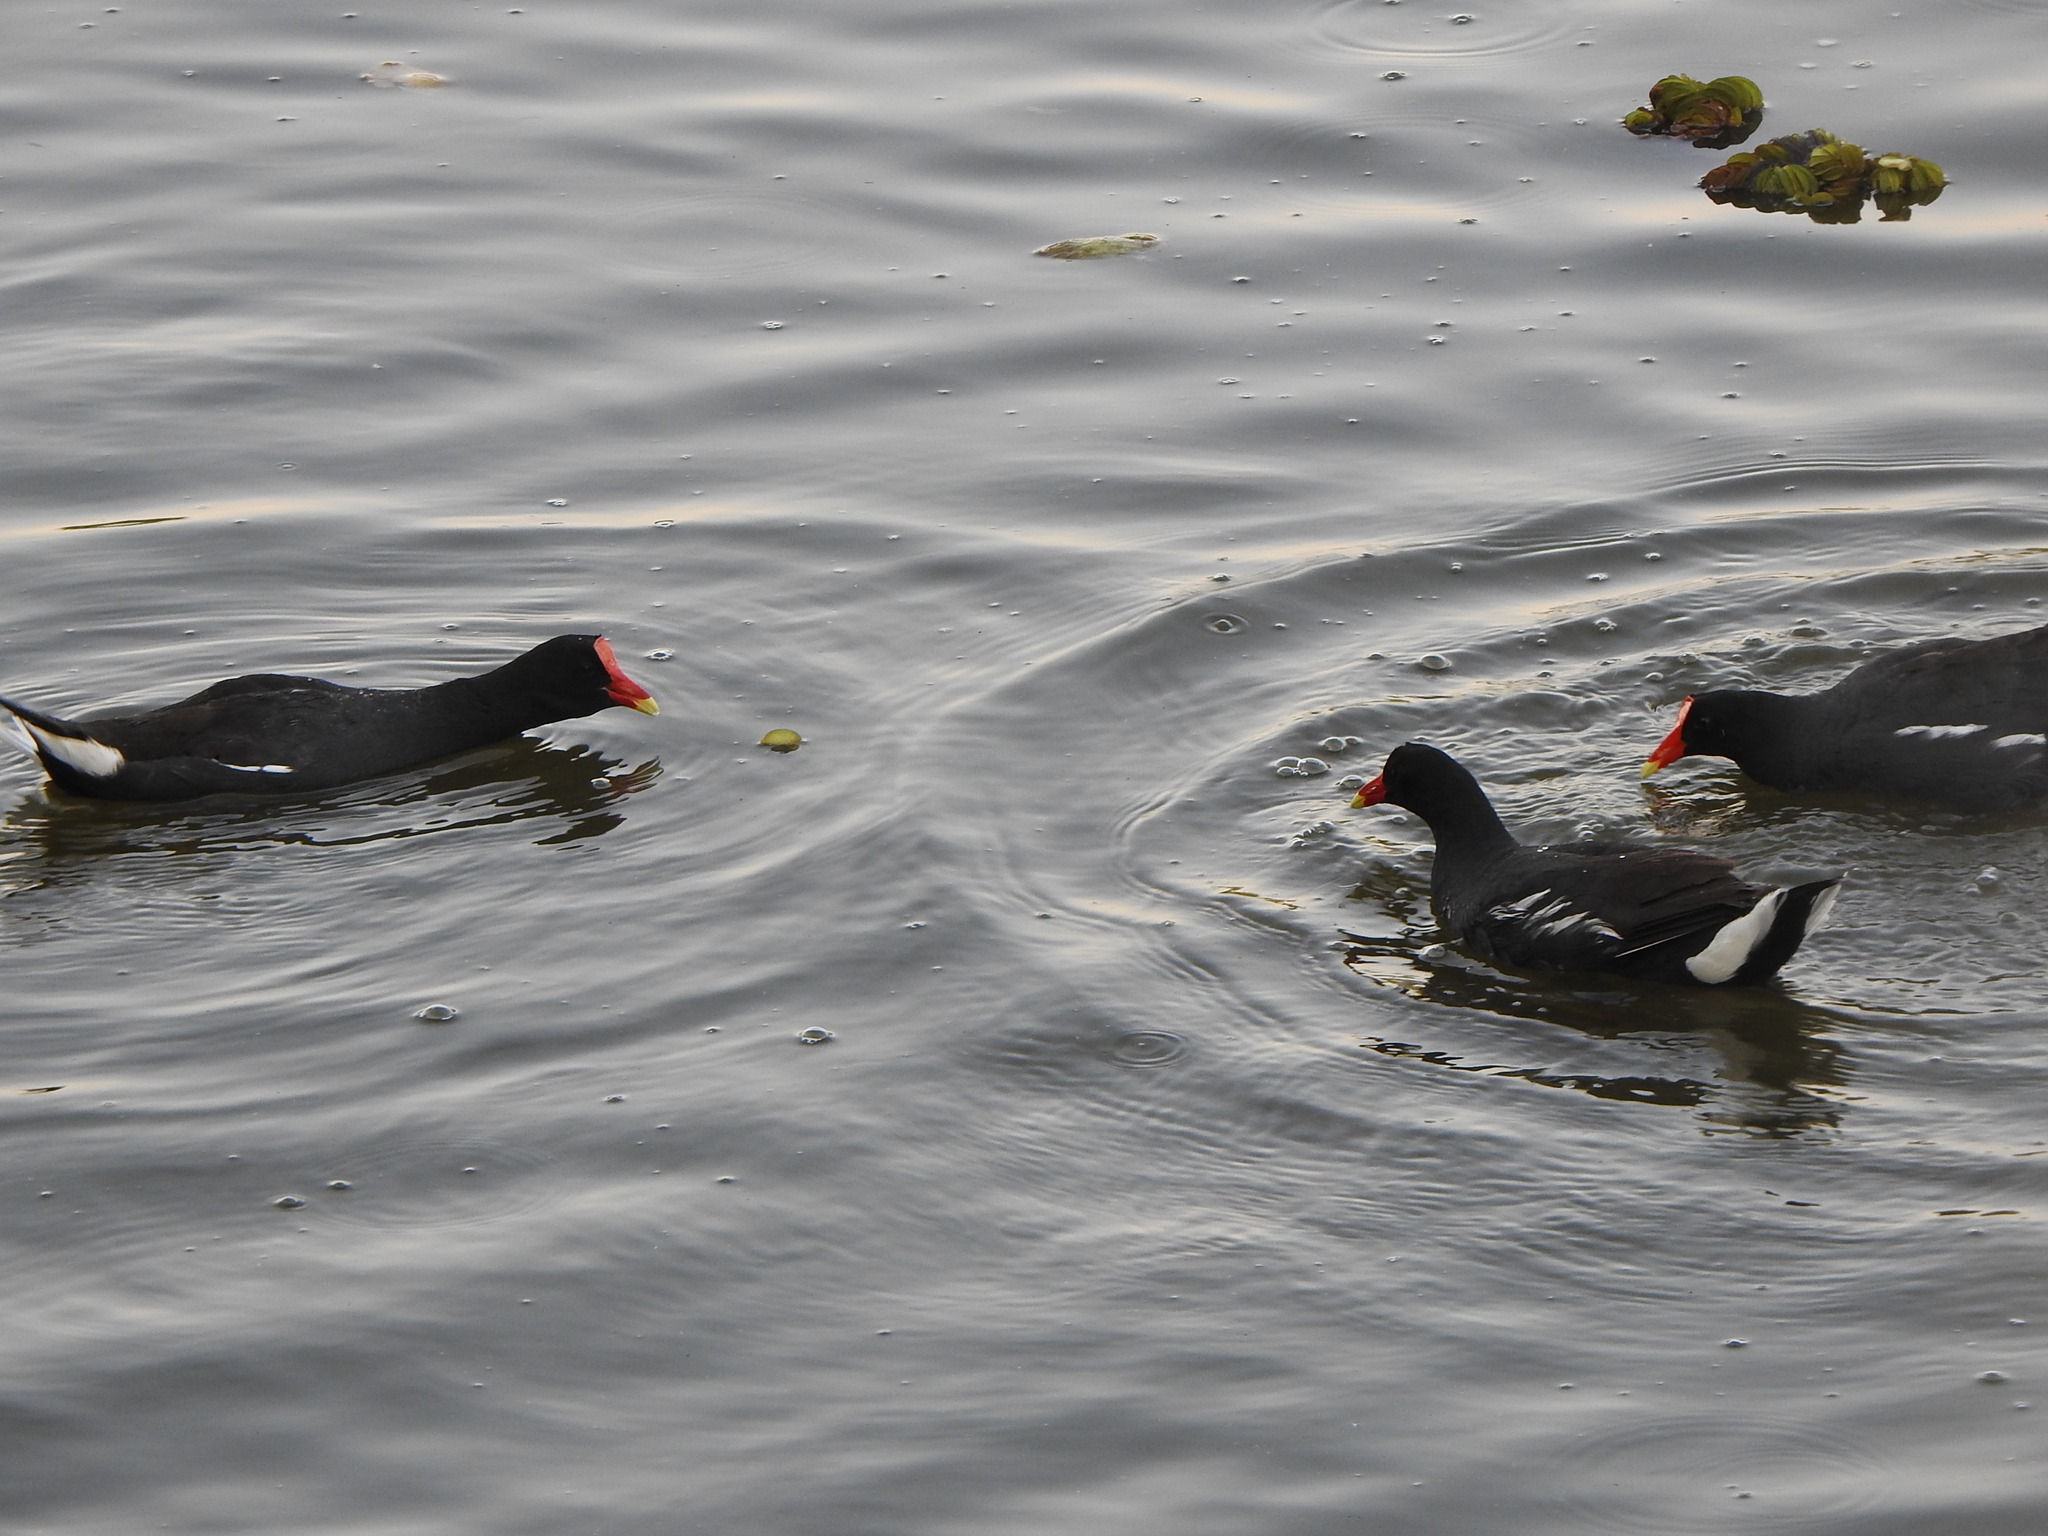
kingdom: Animalia
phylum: Chordata
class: Aves
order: Gruiformes
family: Rallidae
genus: Gallinula
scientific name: Gallinula chloropus
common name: Common moorhen
